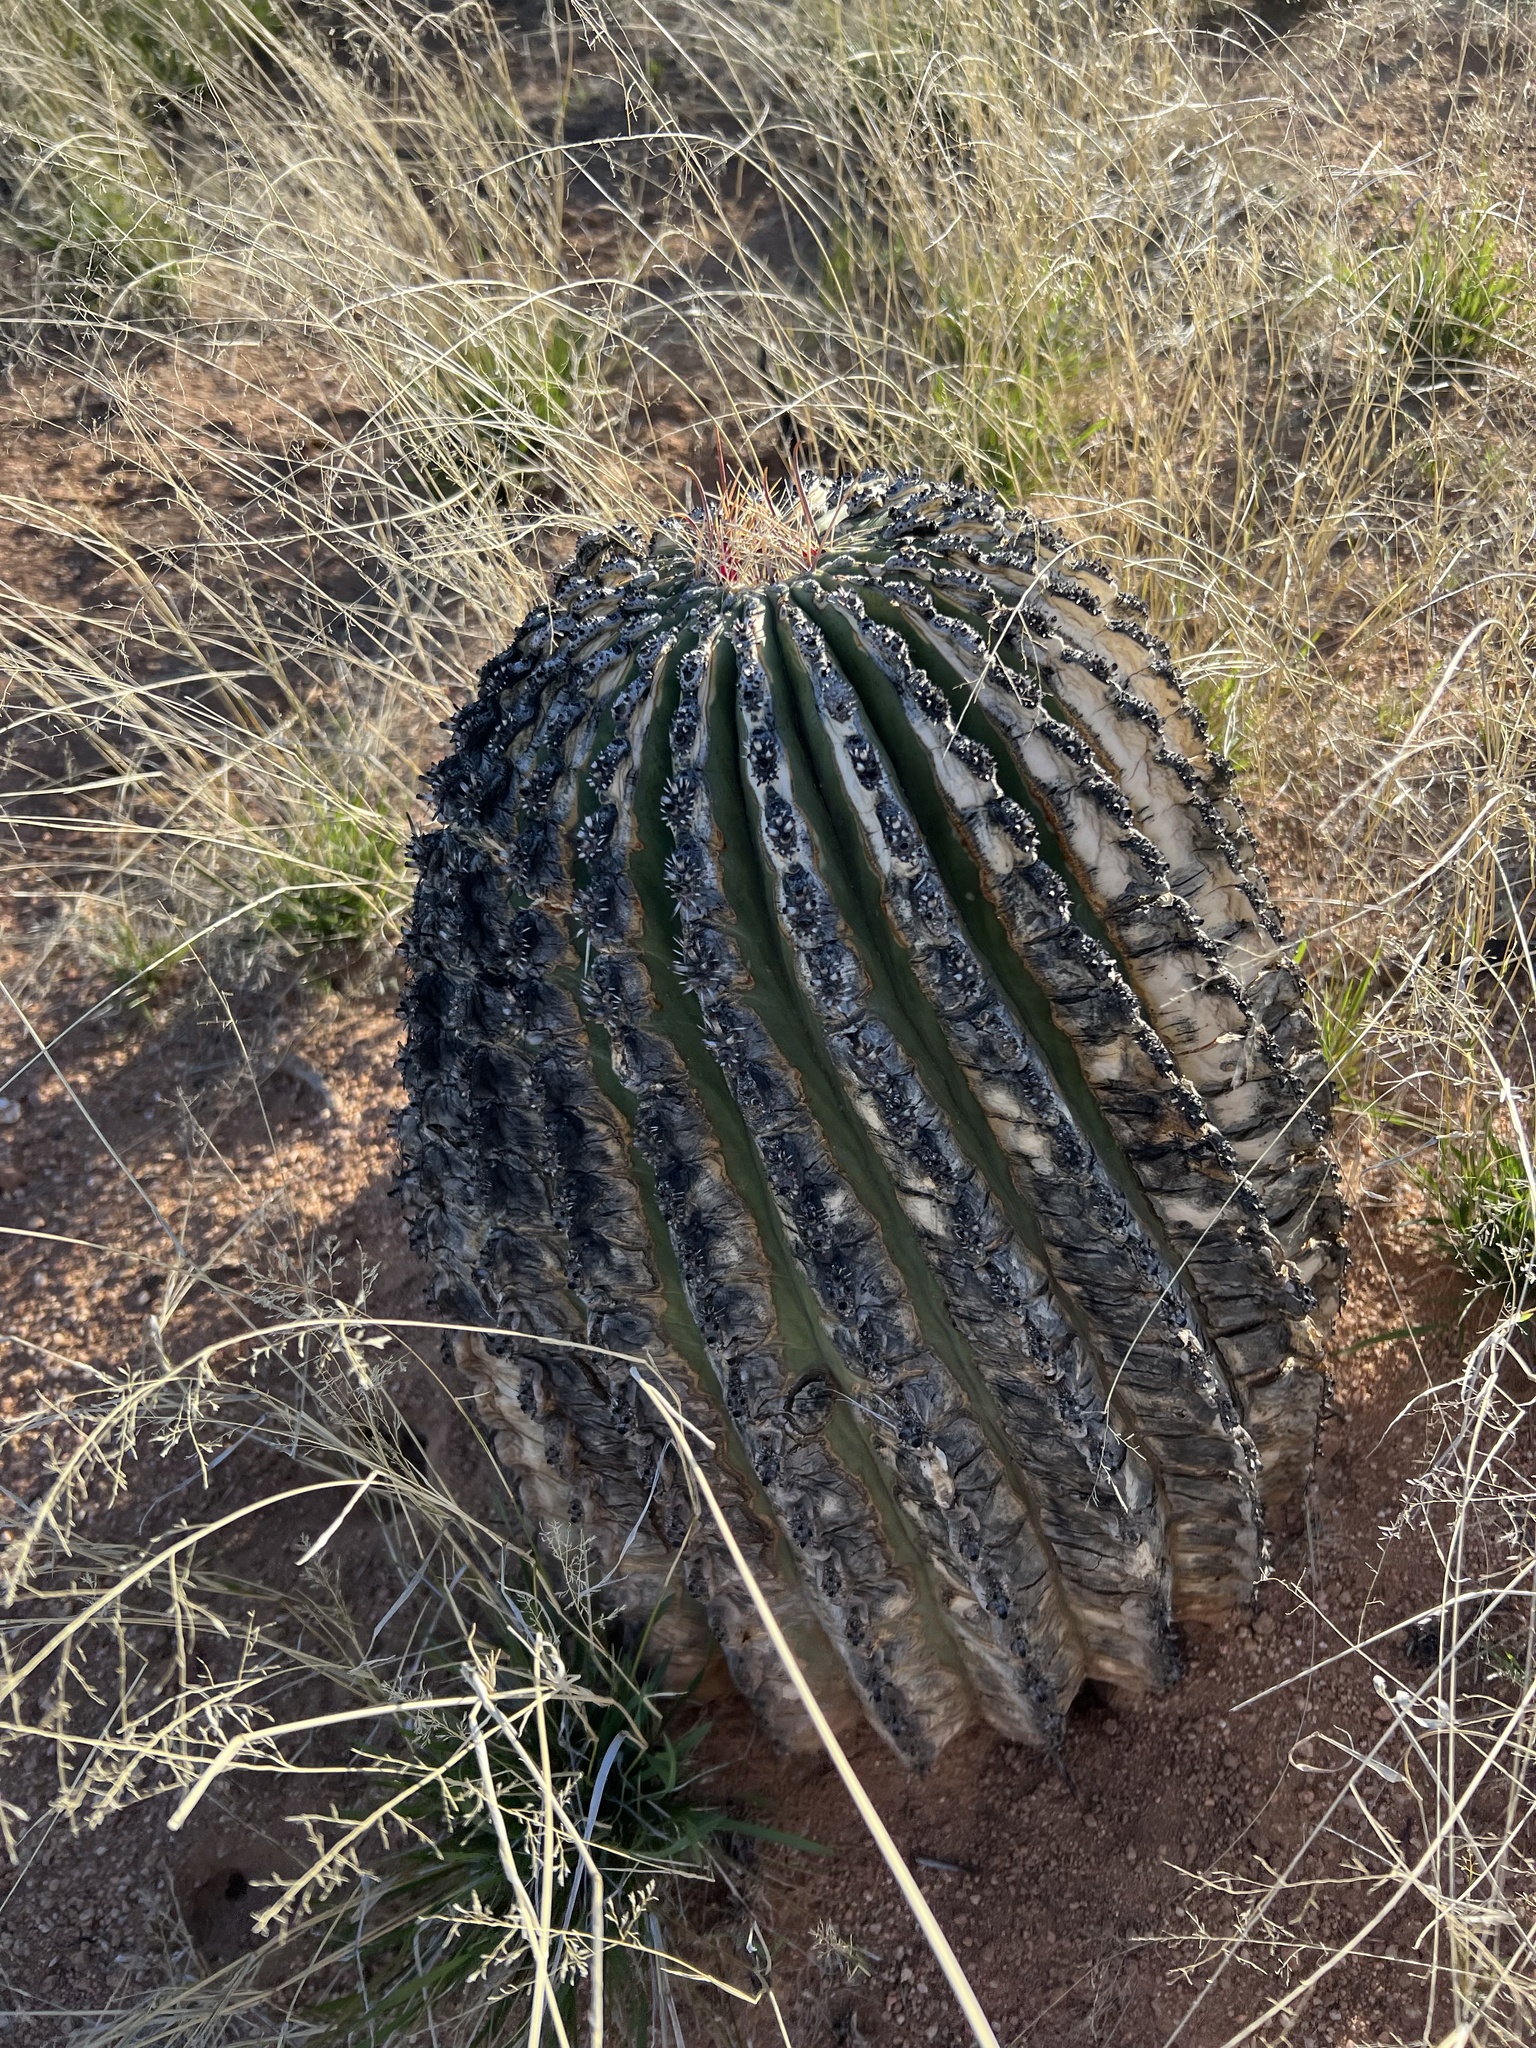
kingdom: Plantae
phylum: Tracheophyta
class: Magnoliopsida
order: Caryophyllales
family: Cactaceae
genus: Ferocactus
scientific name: Ferocactus wislizeni
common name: Candy barrel cactus
